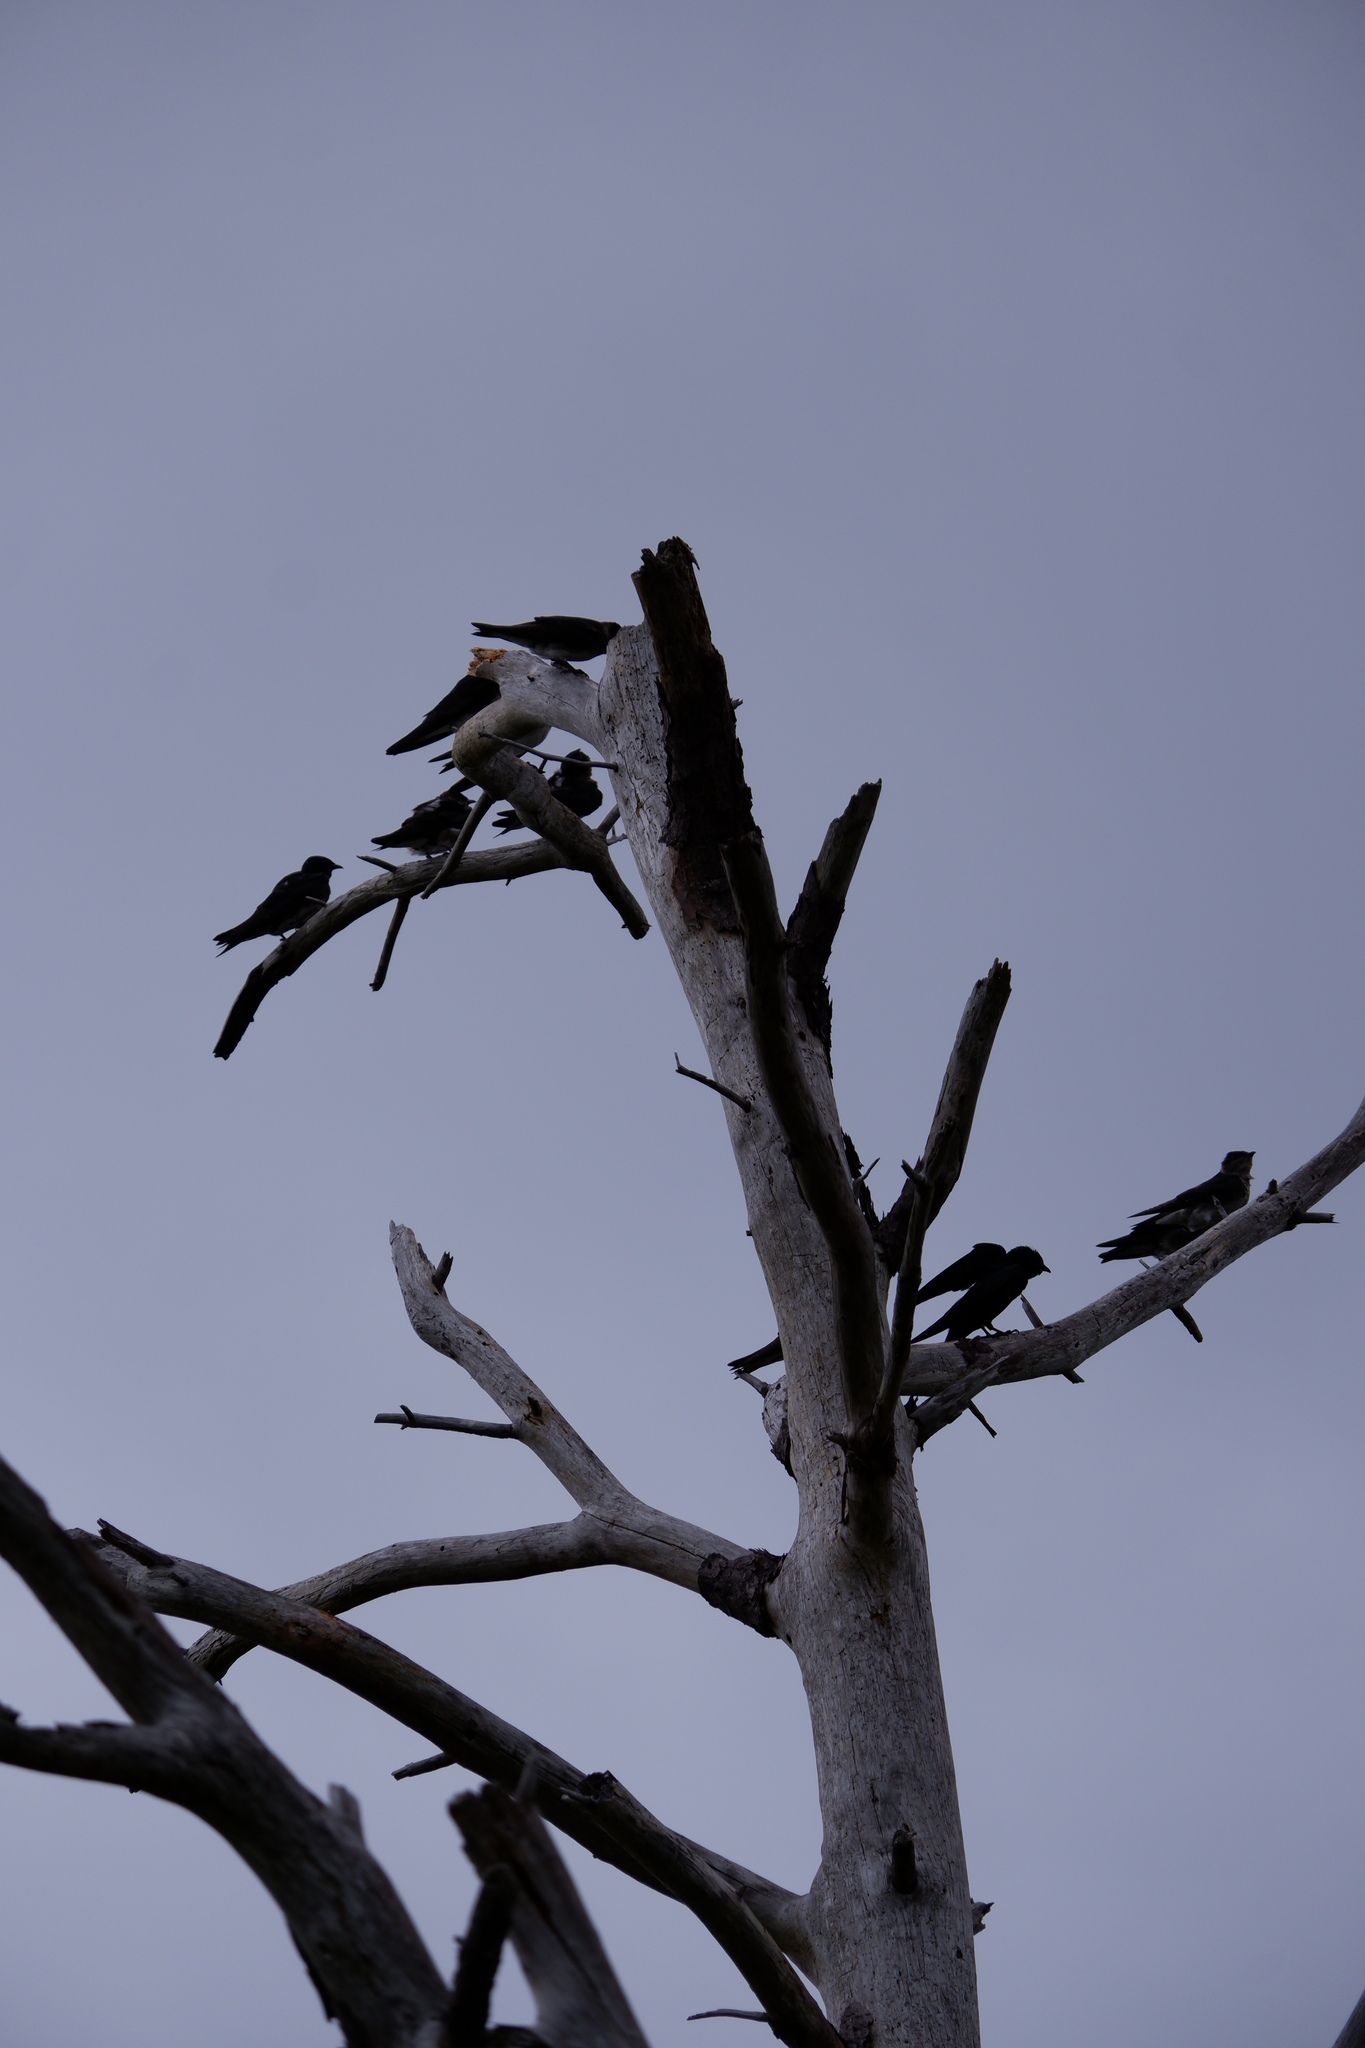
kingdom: Animalia
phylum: Chordata
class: Aves
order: Passeriformes
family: Hirundinidae
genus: Progne
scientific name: Progne subis
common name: Purple martin
